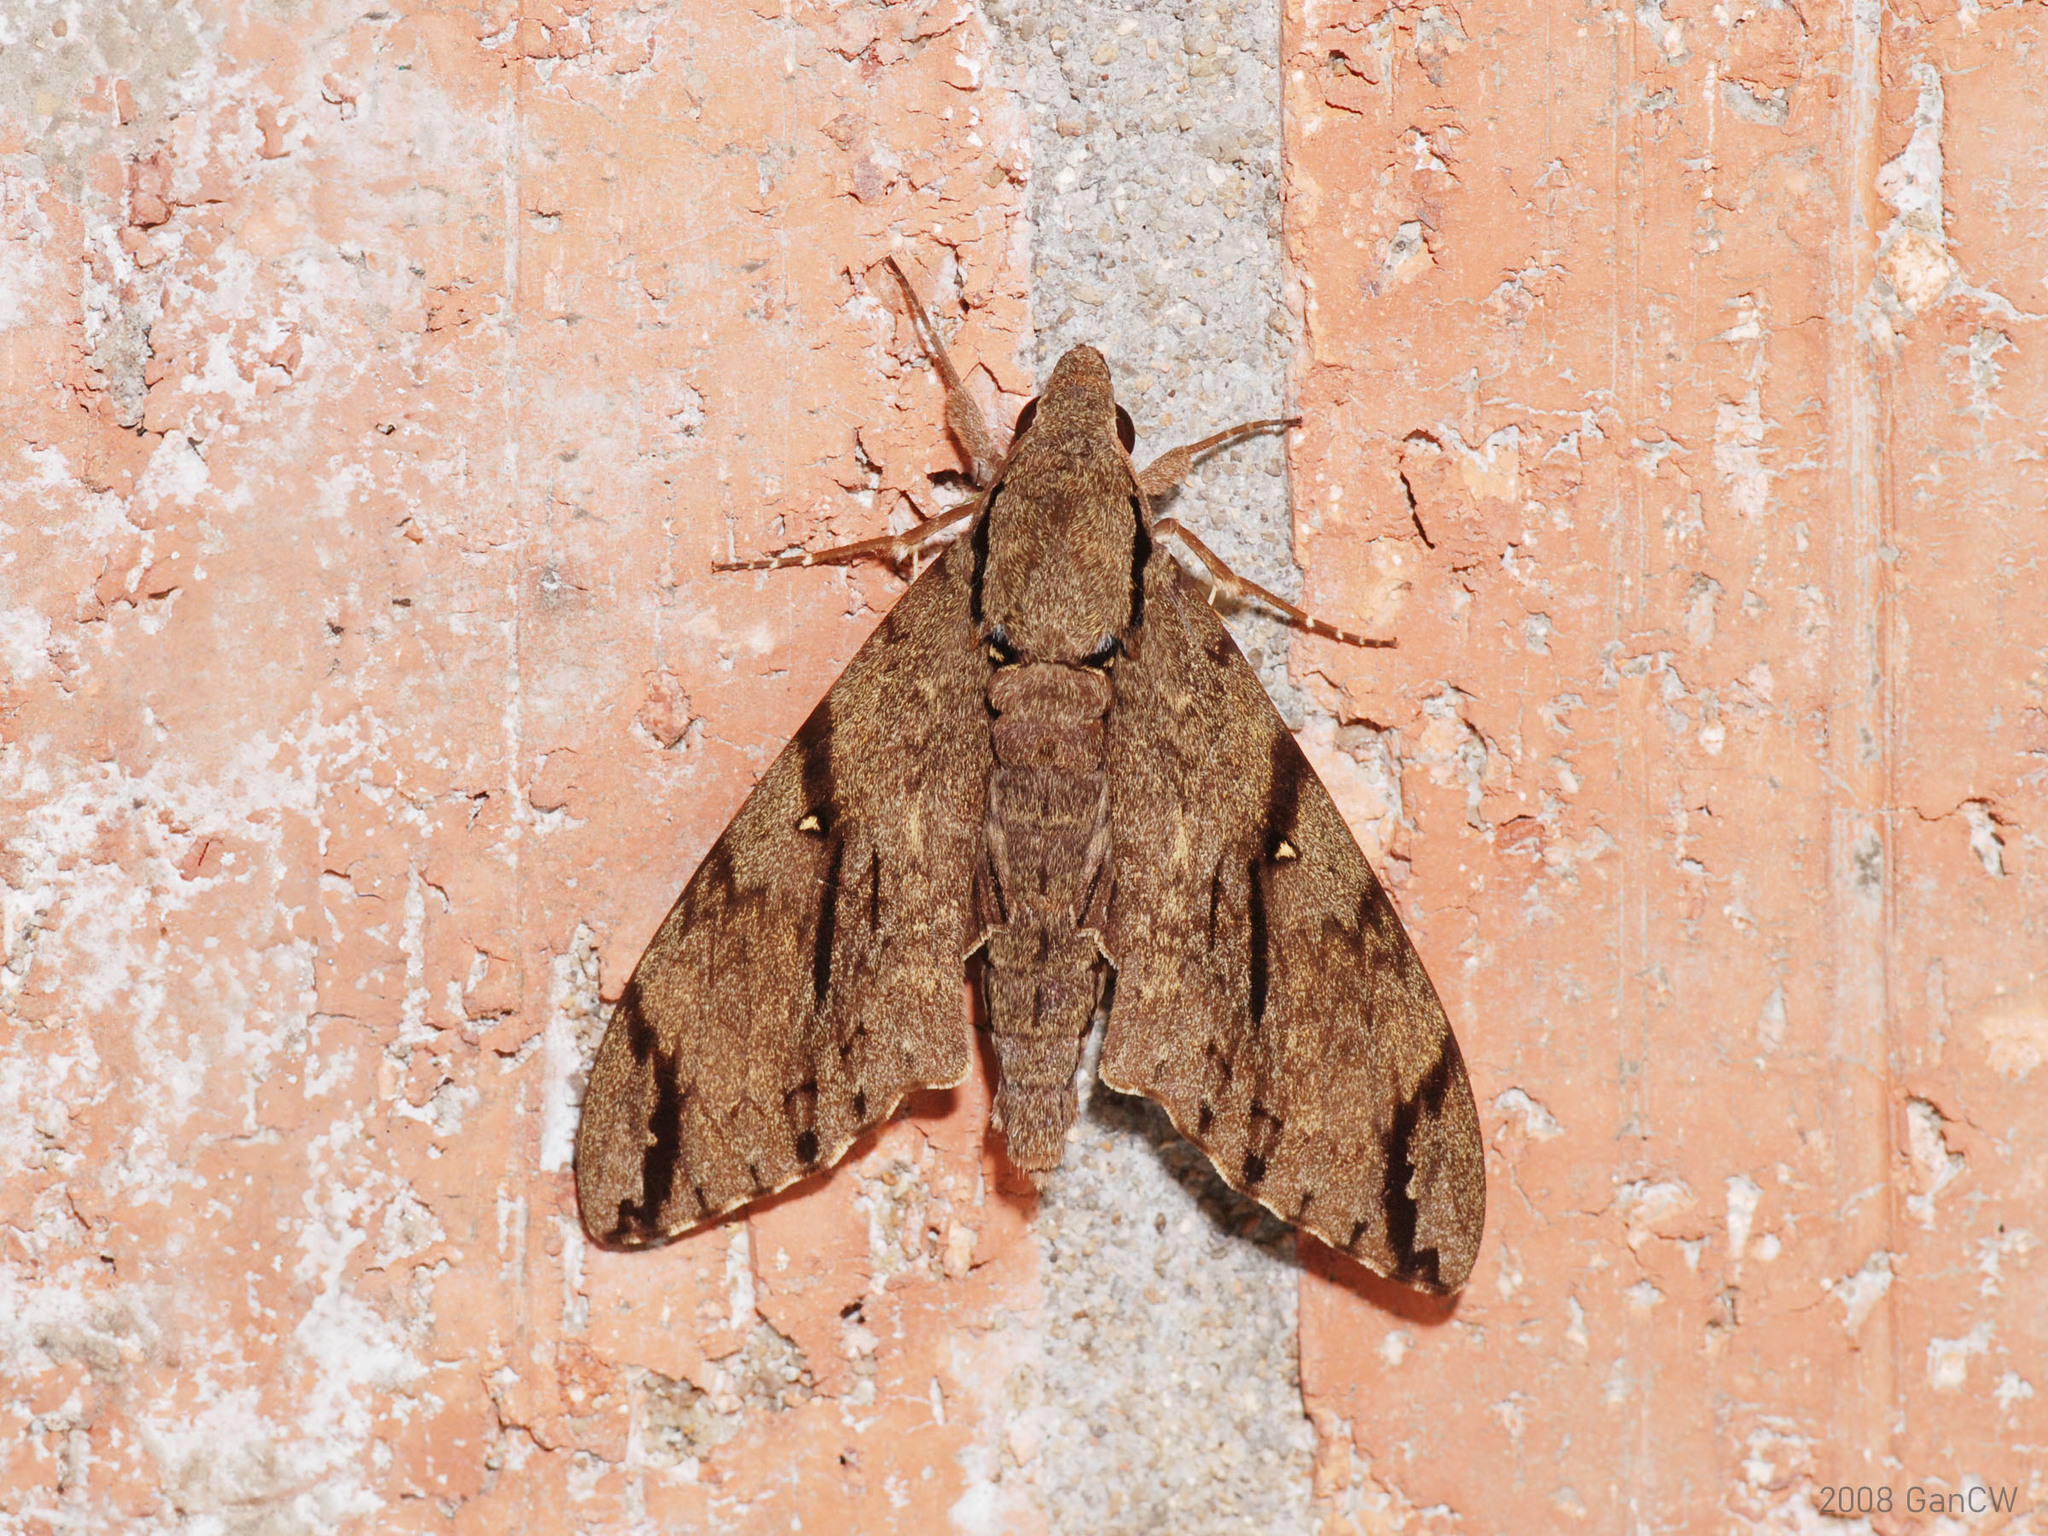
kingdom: Animalia
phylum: Arthropoda
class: Insecta
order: Lepidoptera
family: Sphingidae
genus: Cerberonoton
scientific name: Cerberonoton rubescens
